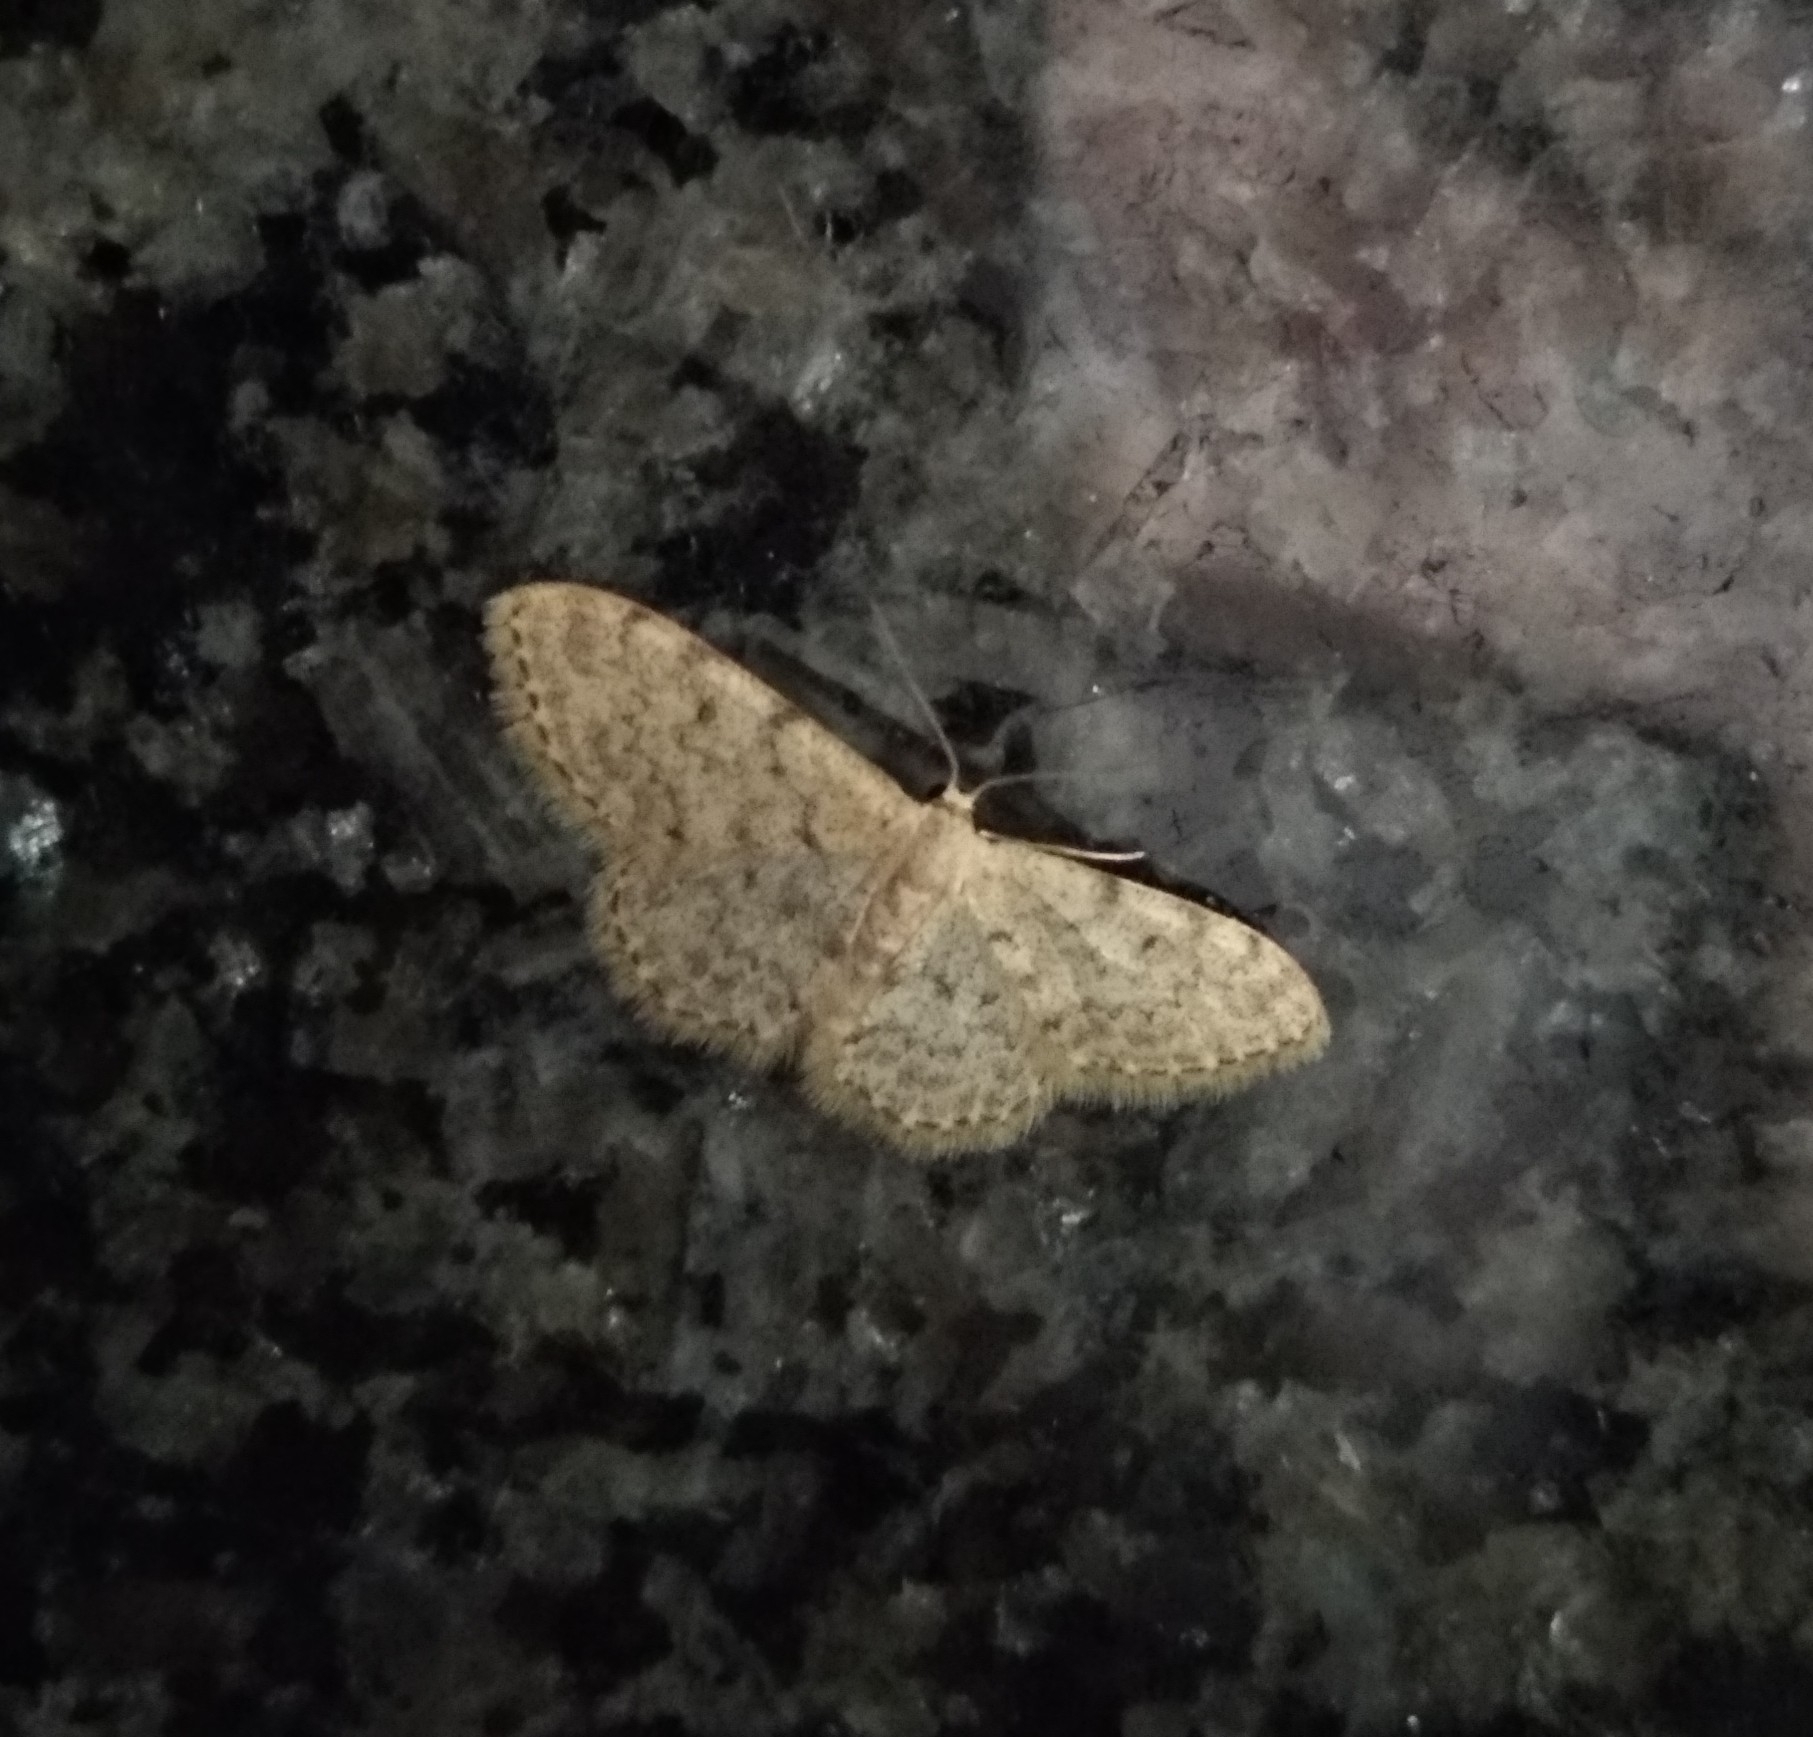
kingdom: Animalia
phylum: Arthropoda
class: Insecta
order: Lepidoptera
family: Geometridae
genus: Idaea
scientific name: Idaea cervantaria
